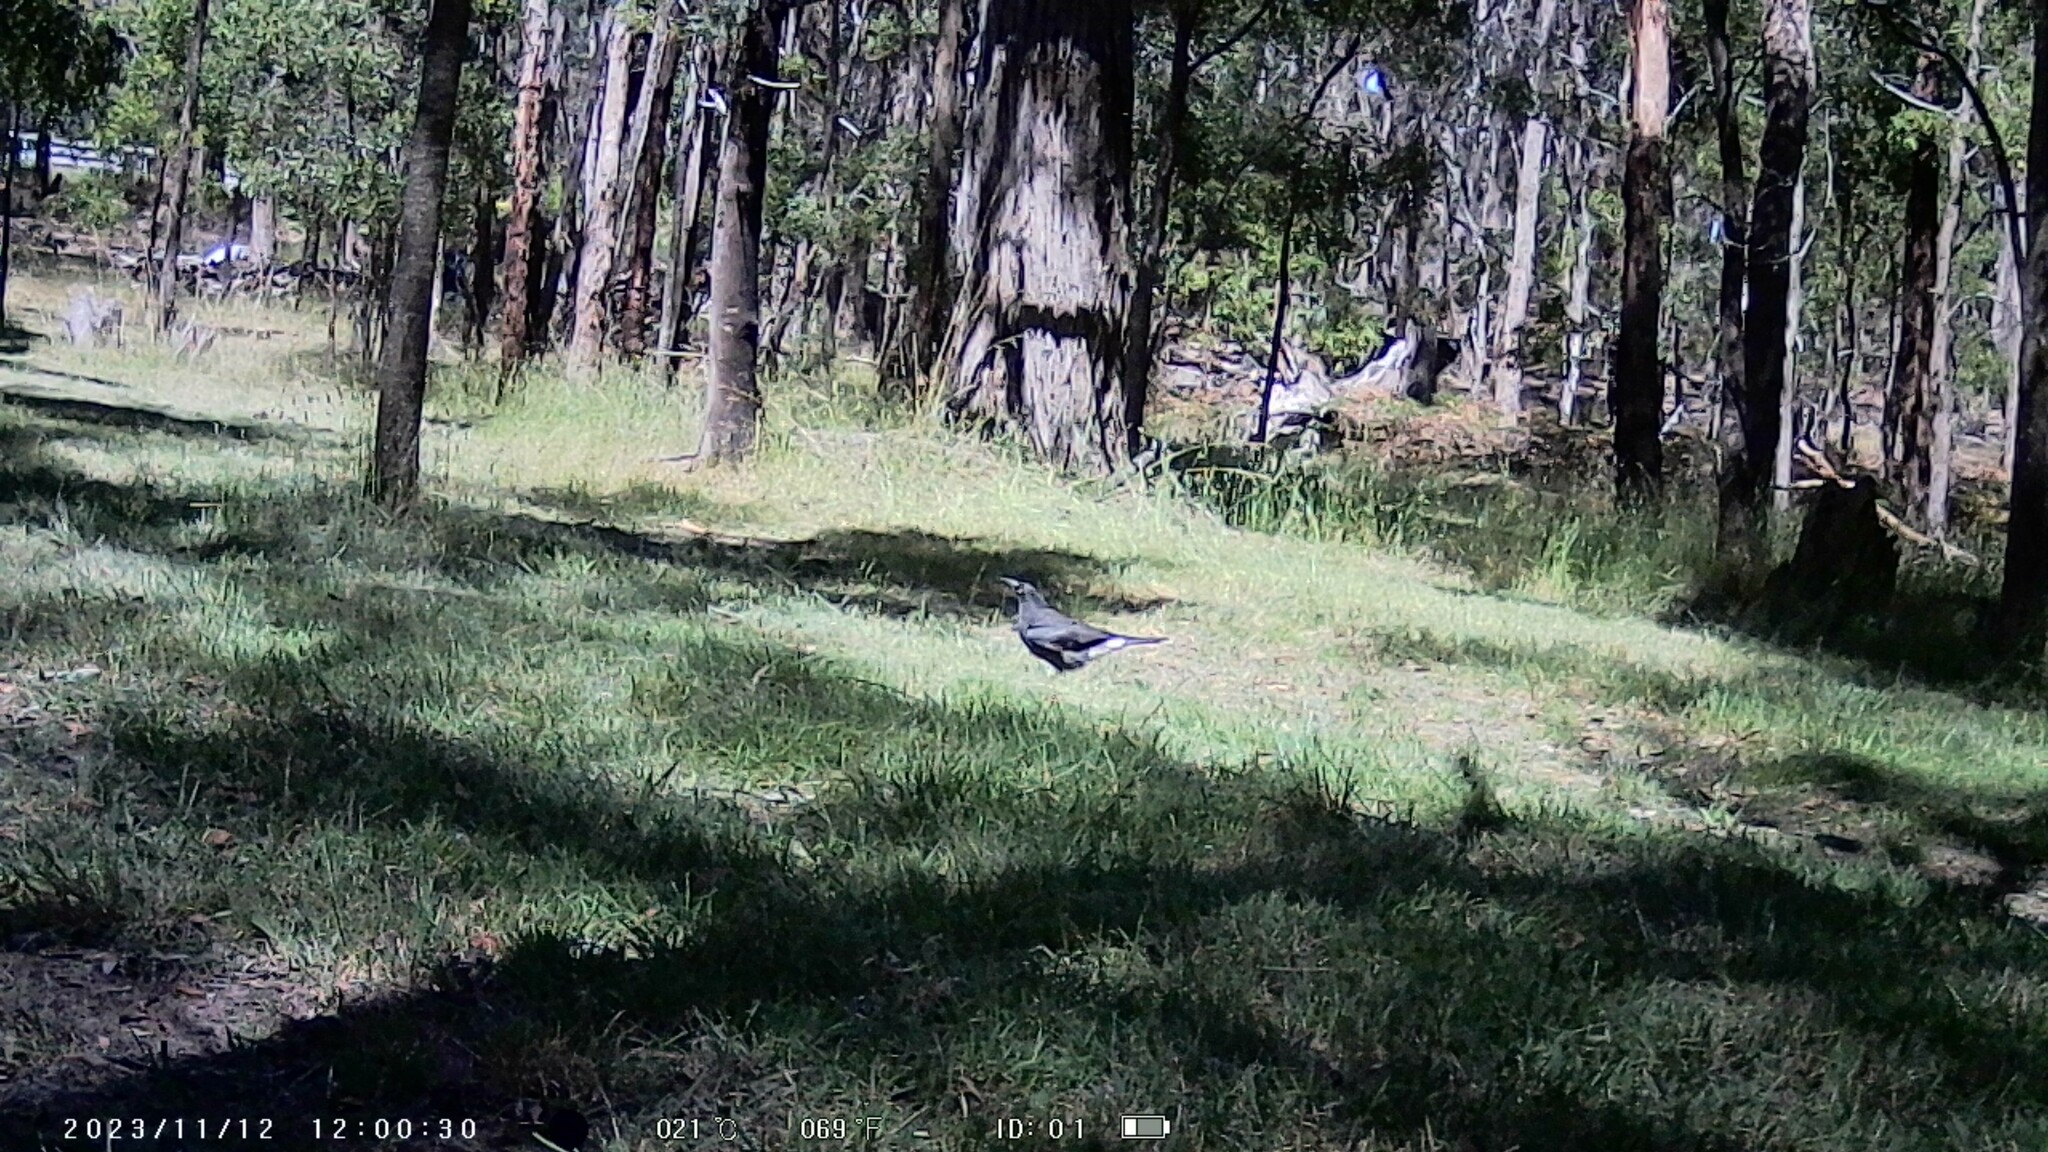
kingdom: Animalia
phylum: Chordata
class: Aves
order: Passeriformes
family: Cracticidae
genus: Strepera
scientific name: Strepera graculina
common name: Pied currawong
